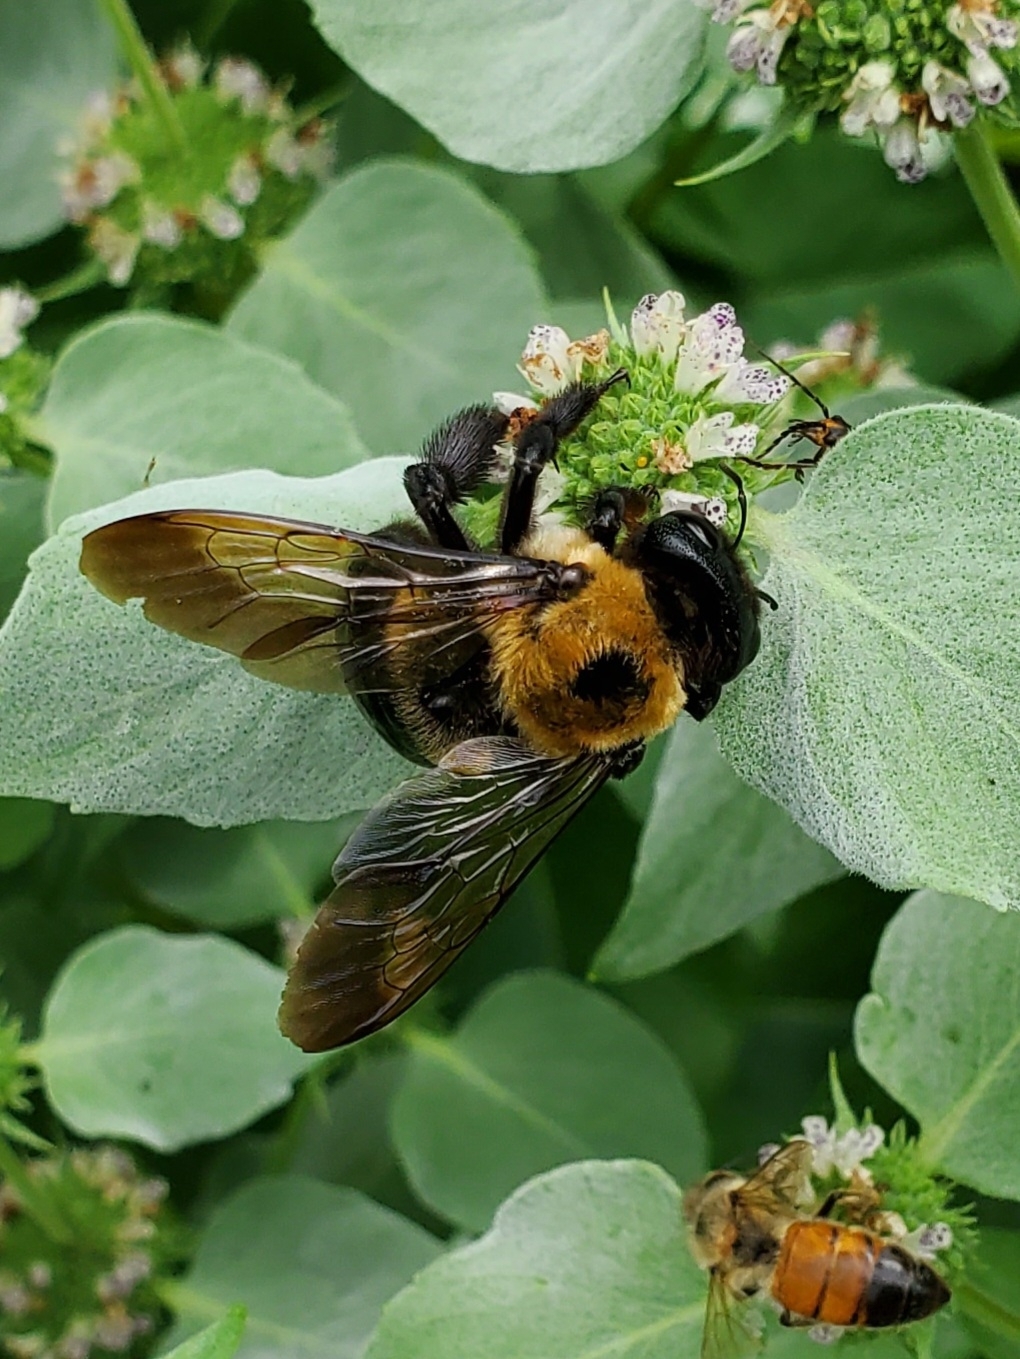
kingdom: Animalia
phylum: Arthropoda
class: Insecta
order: Hymenoptera
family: Apidae
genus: Xylocopa
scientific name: Xylocopa virginica
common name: Carpenter bee
